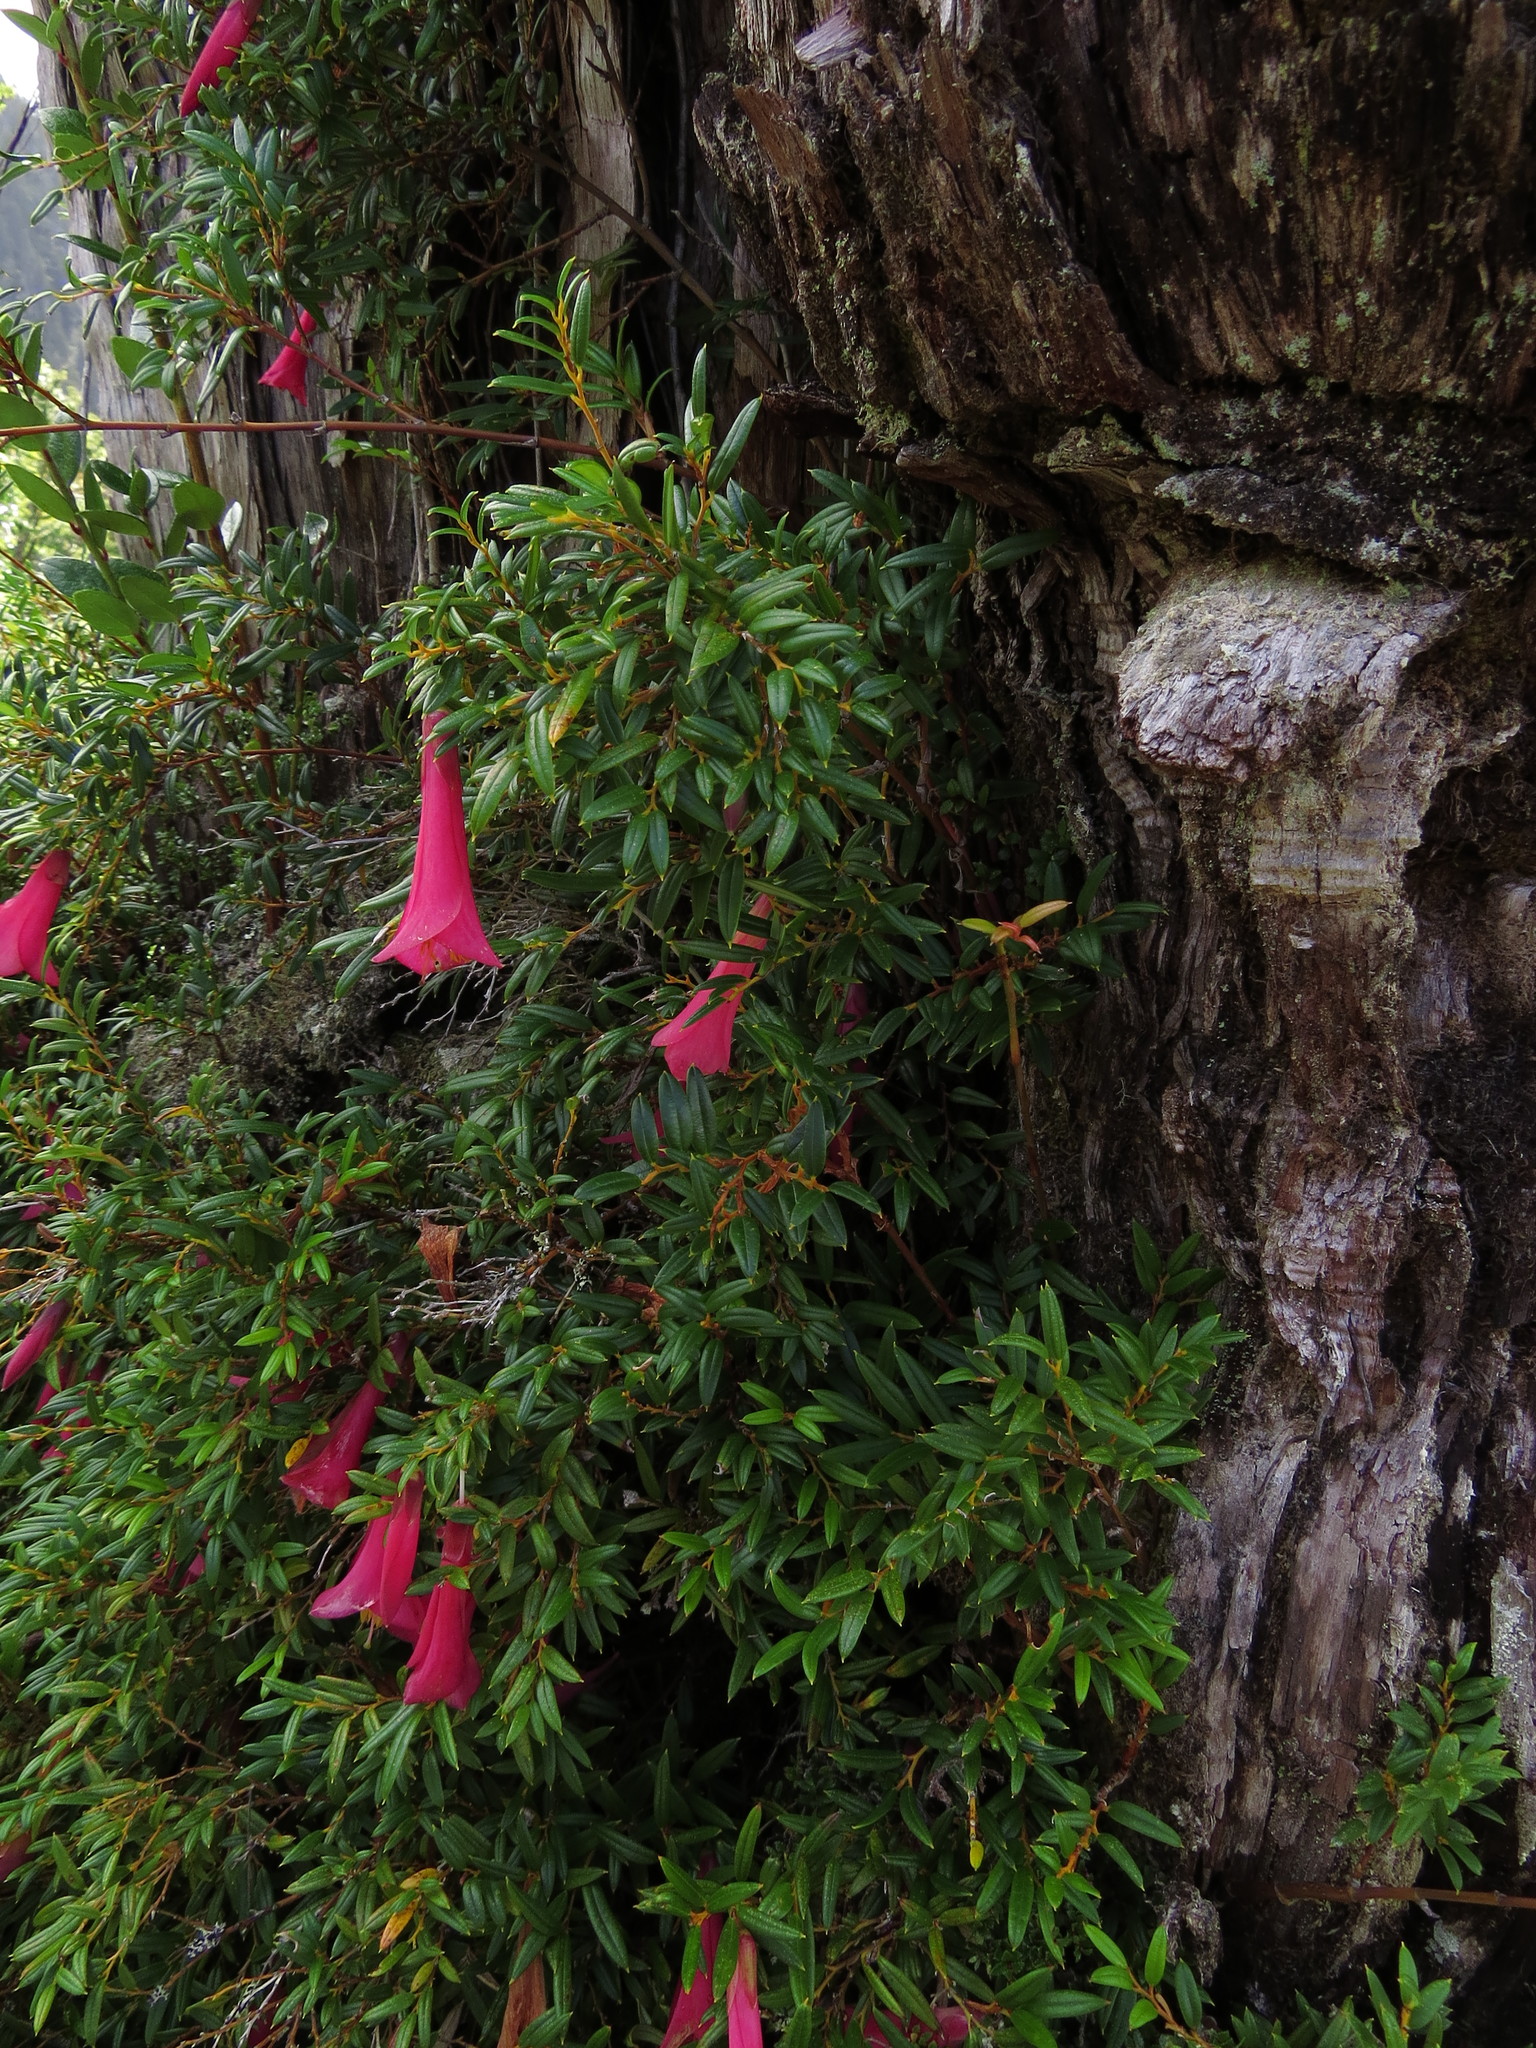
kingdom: Plantae
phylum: Tracheophyta
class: Liliopsida
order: Liliales
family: Philesiaceae
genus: Philesia
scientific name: Philesia magellanica
